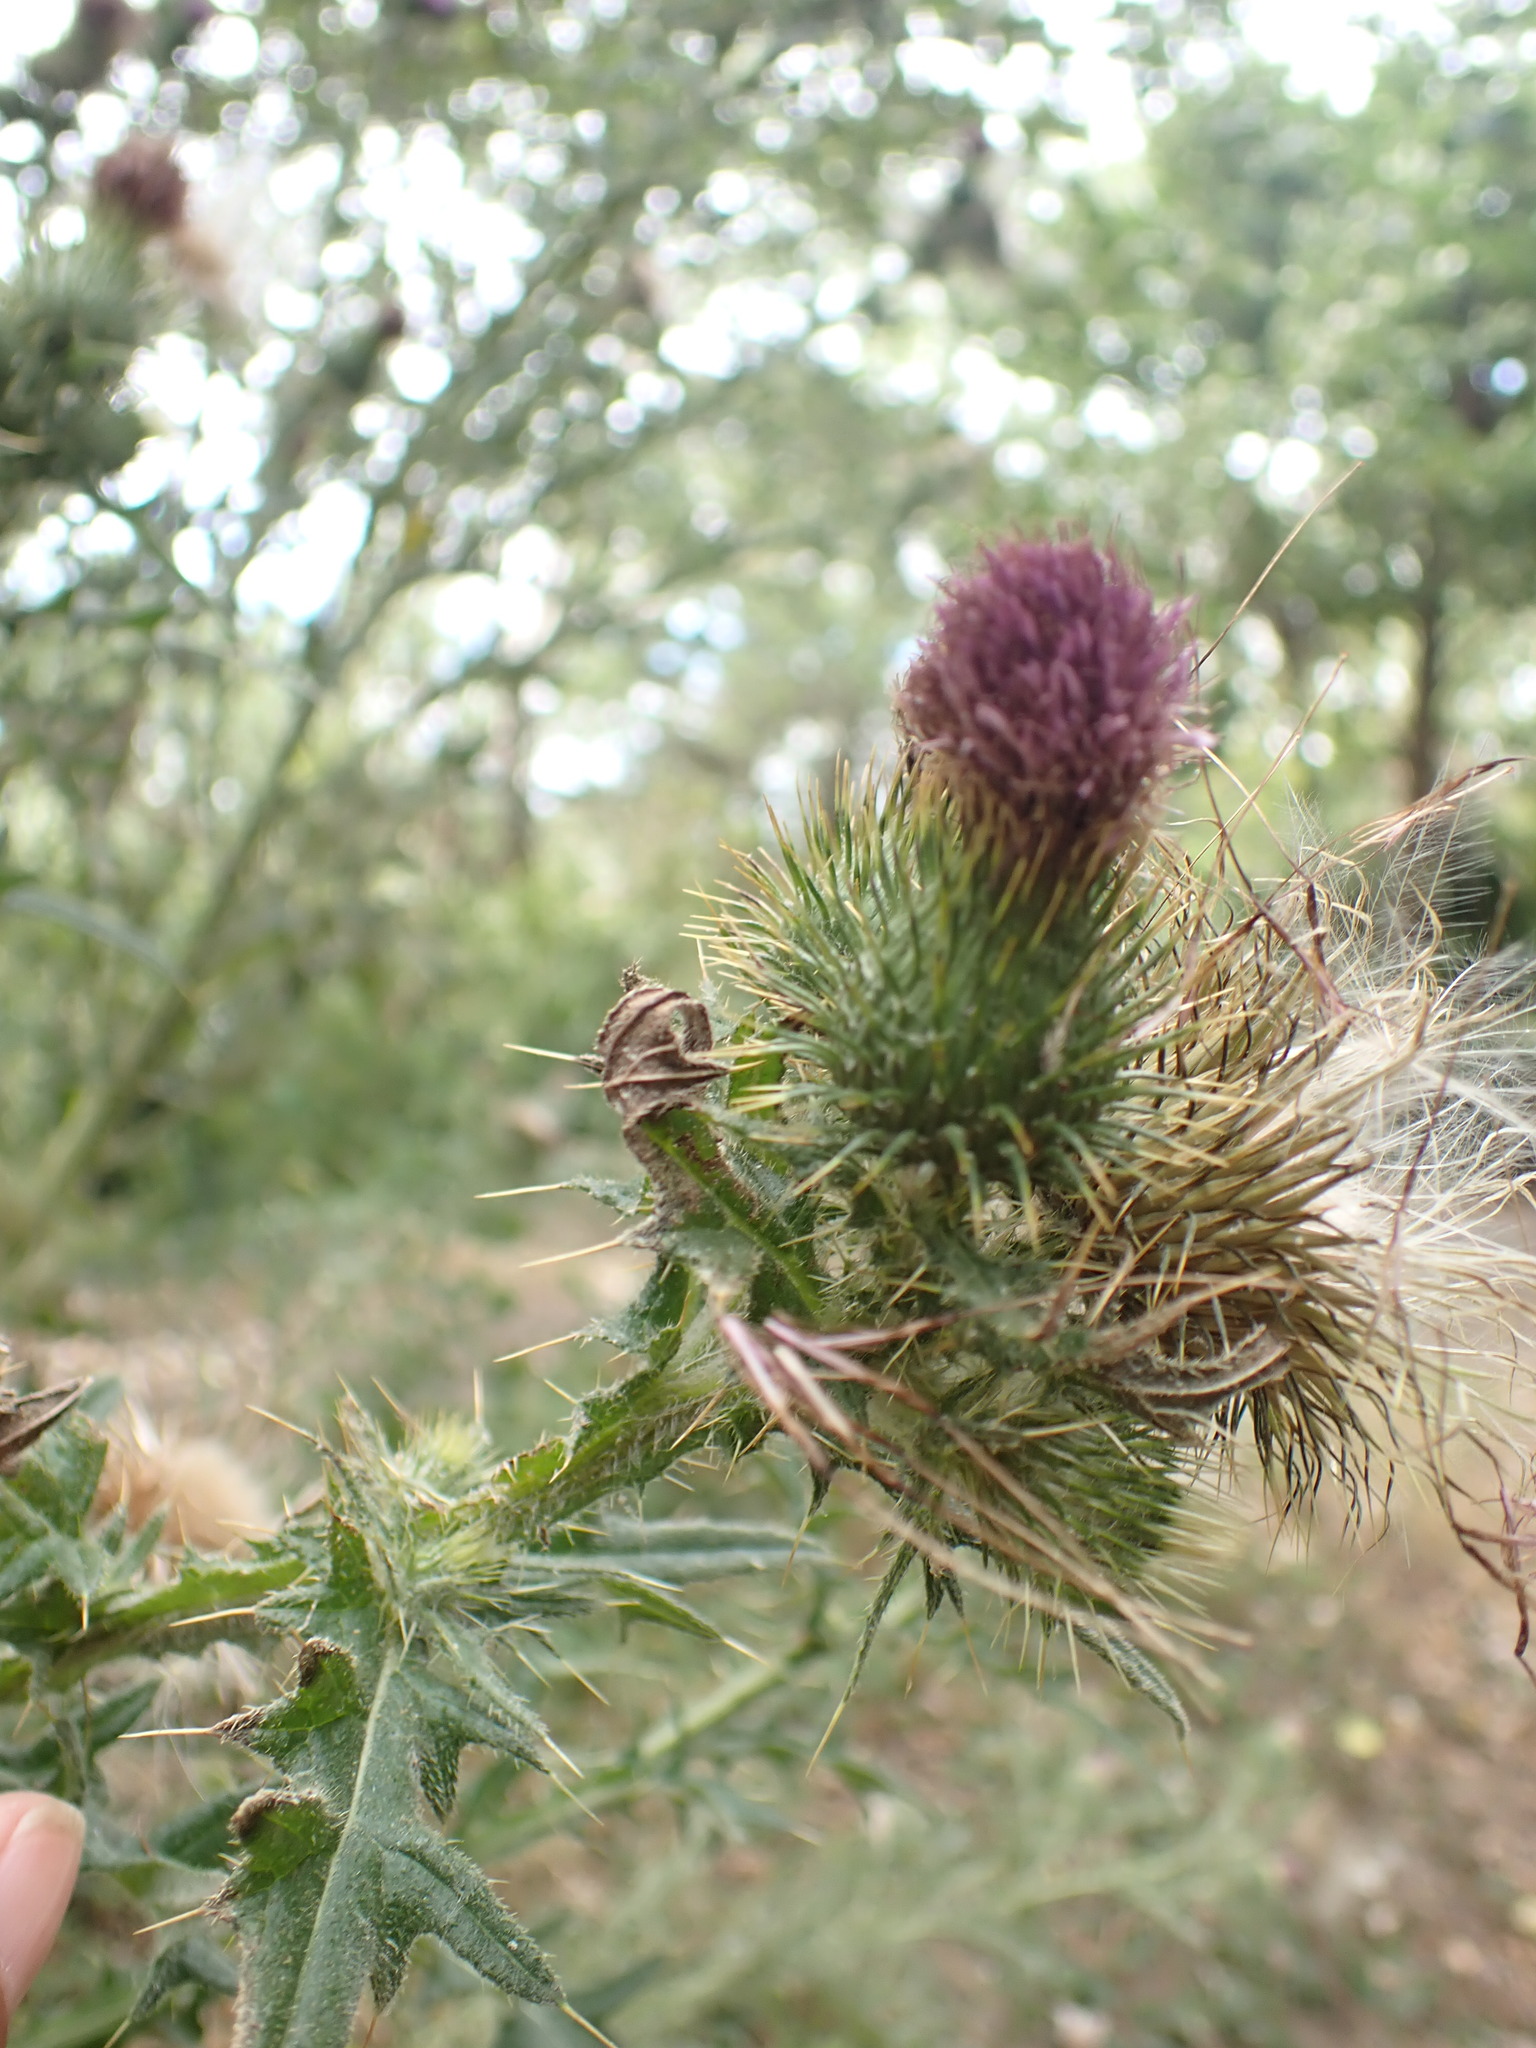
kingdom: Plantae
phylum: Tracheophyta
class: Magnoliopsida
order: Asterales
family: Asteraceae
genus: Cirsium
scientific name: Cirsium vulgare
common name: Bull thistle
